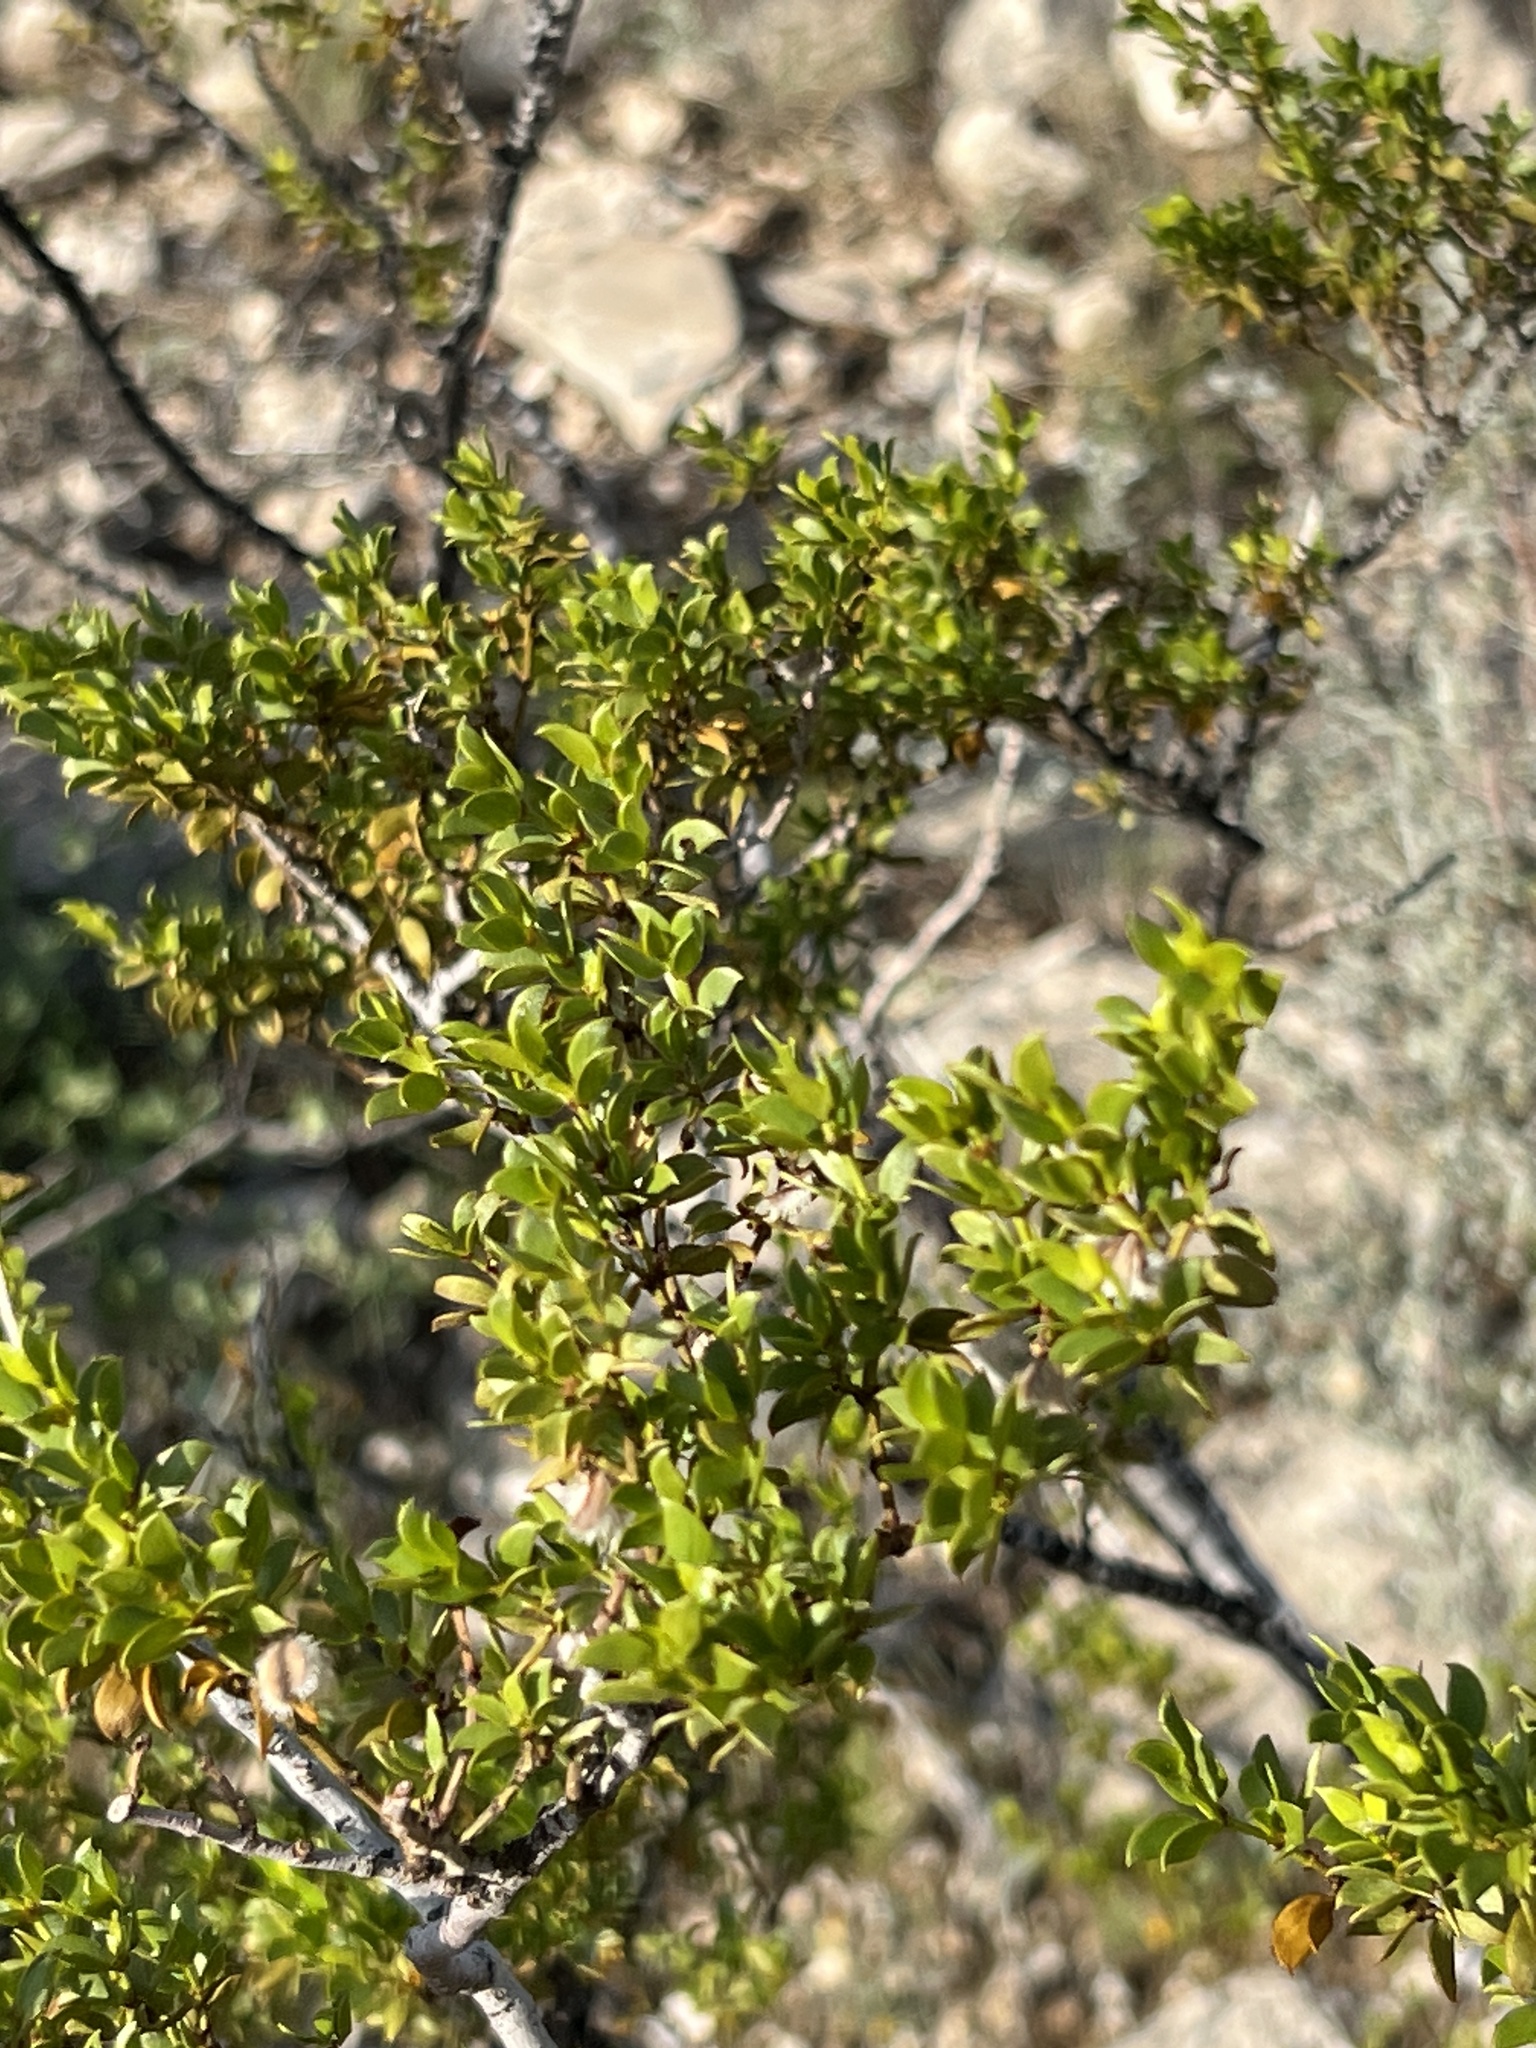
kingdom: Plantae
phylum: Tracheophyta
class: Magnoliopsida
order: Zygophyllales
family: Zygophyllaceae
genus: Larrea
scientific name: Larrea tridentata
